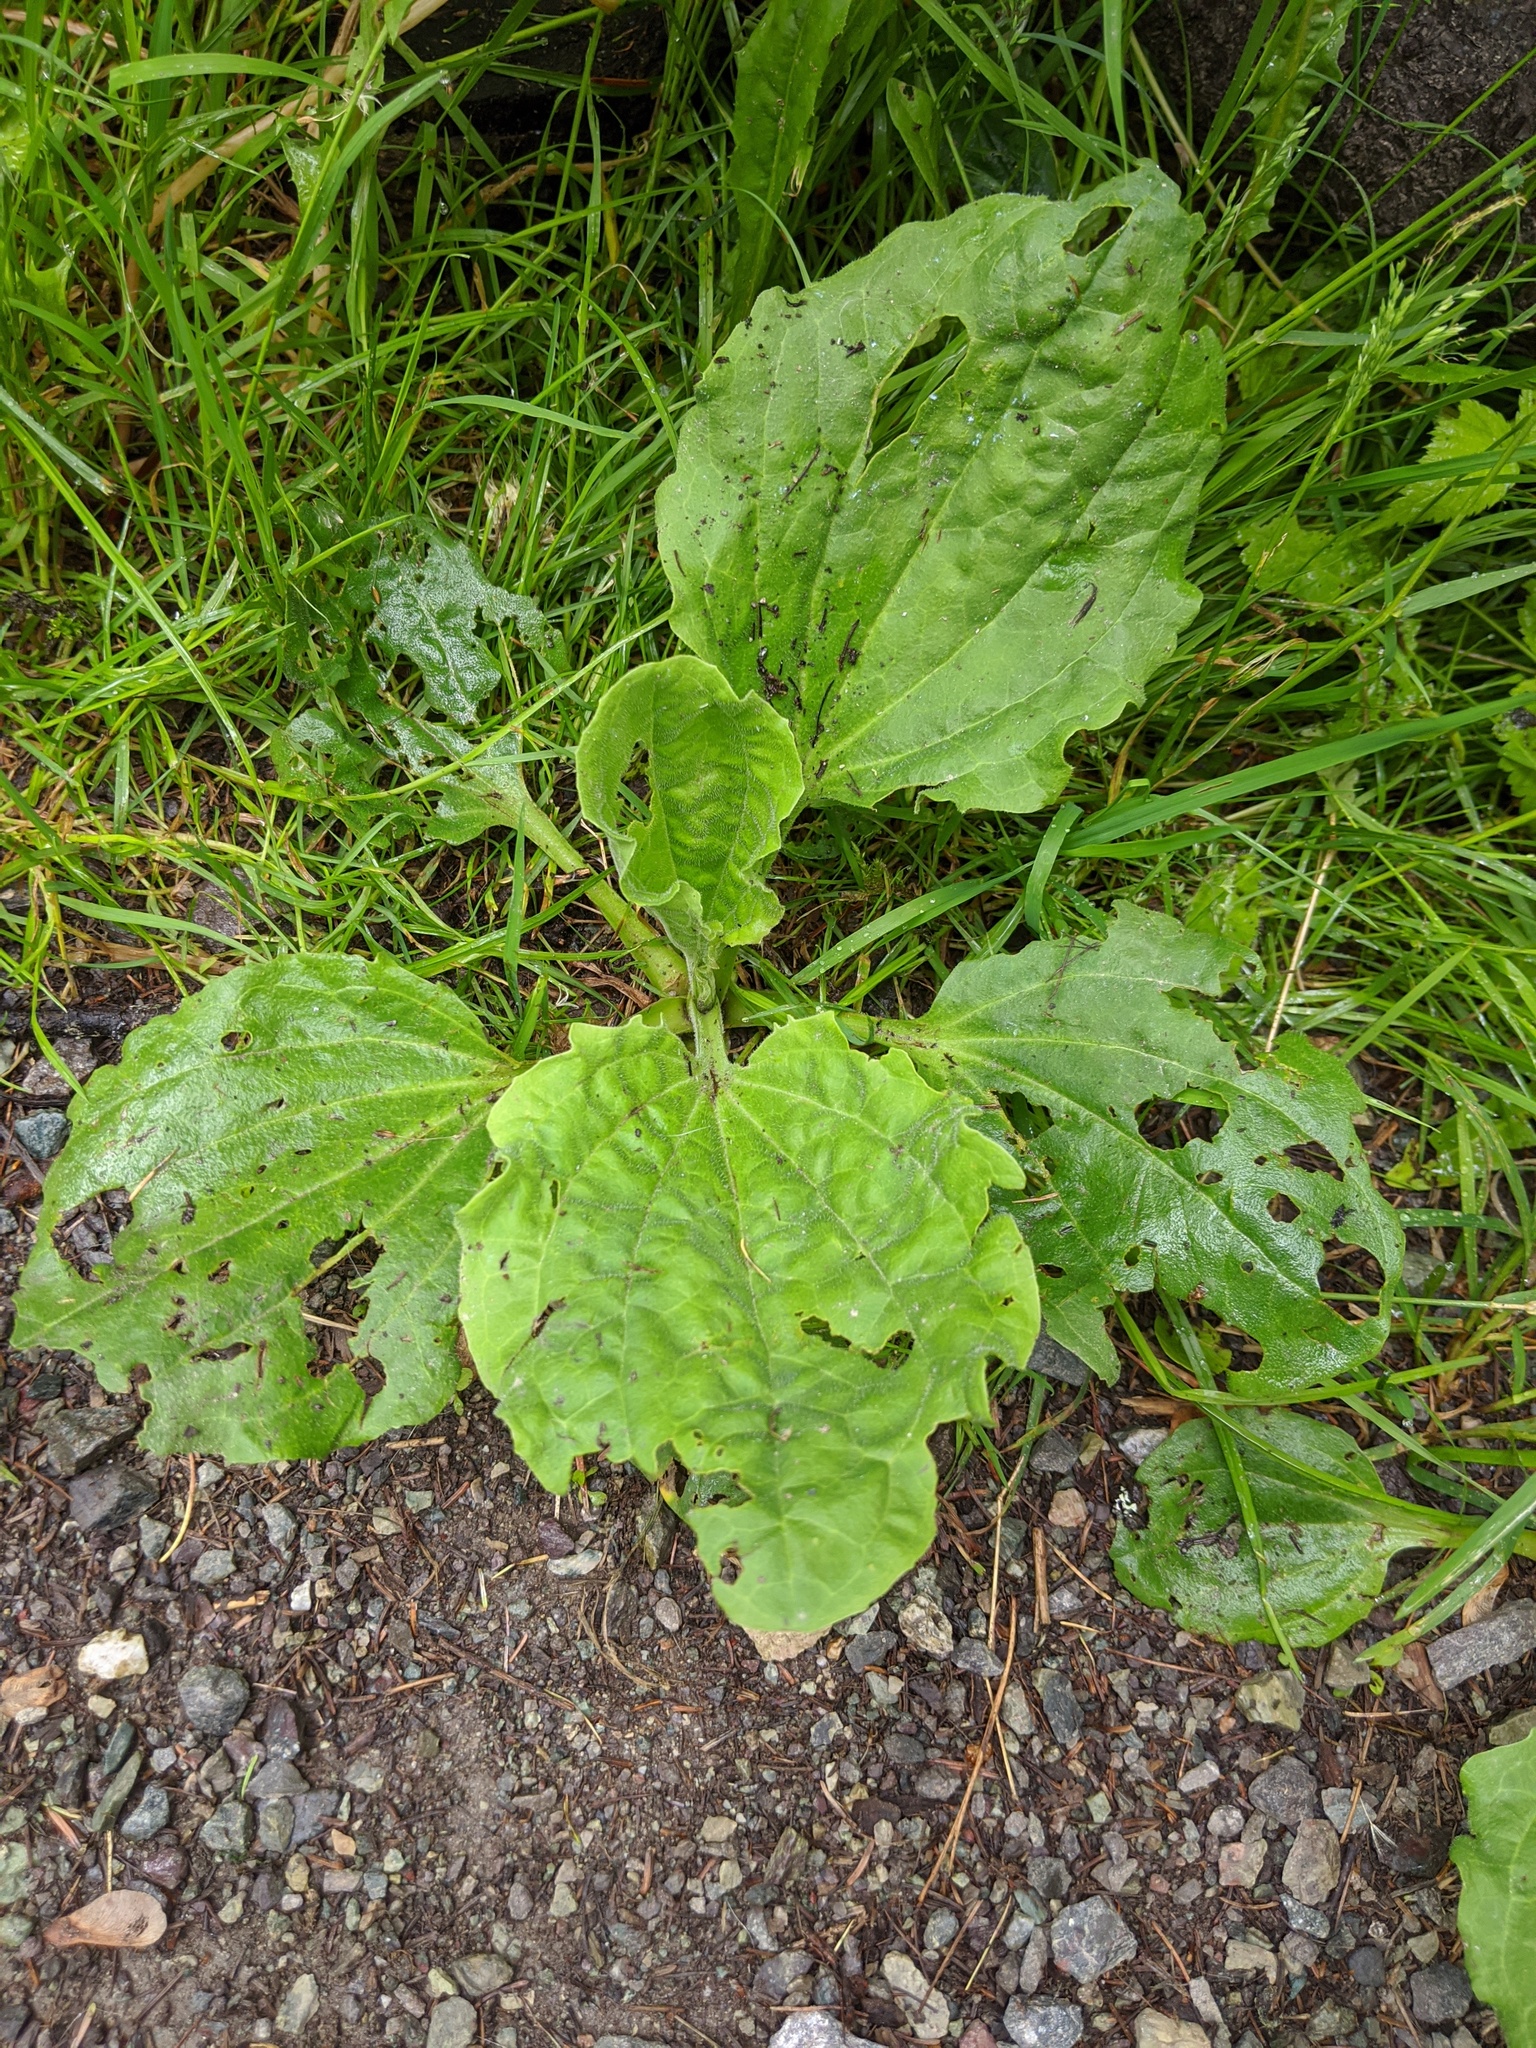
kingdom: Plantae
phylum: Tracheophyta
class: Magnoliopsida
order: Lamiales
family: Plantaginaceae
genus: Plantago
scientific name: Plantago major
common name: Common plantain
